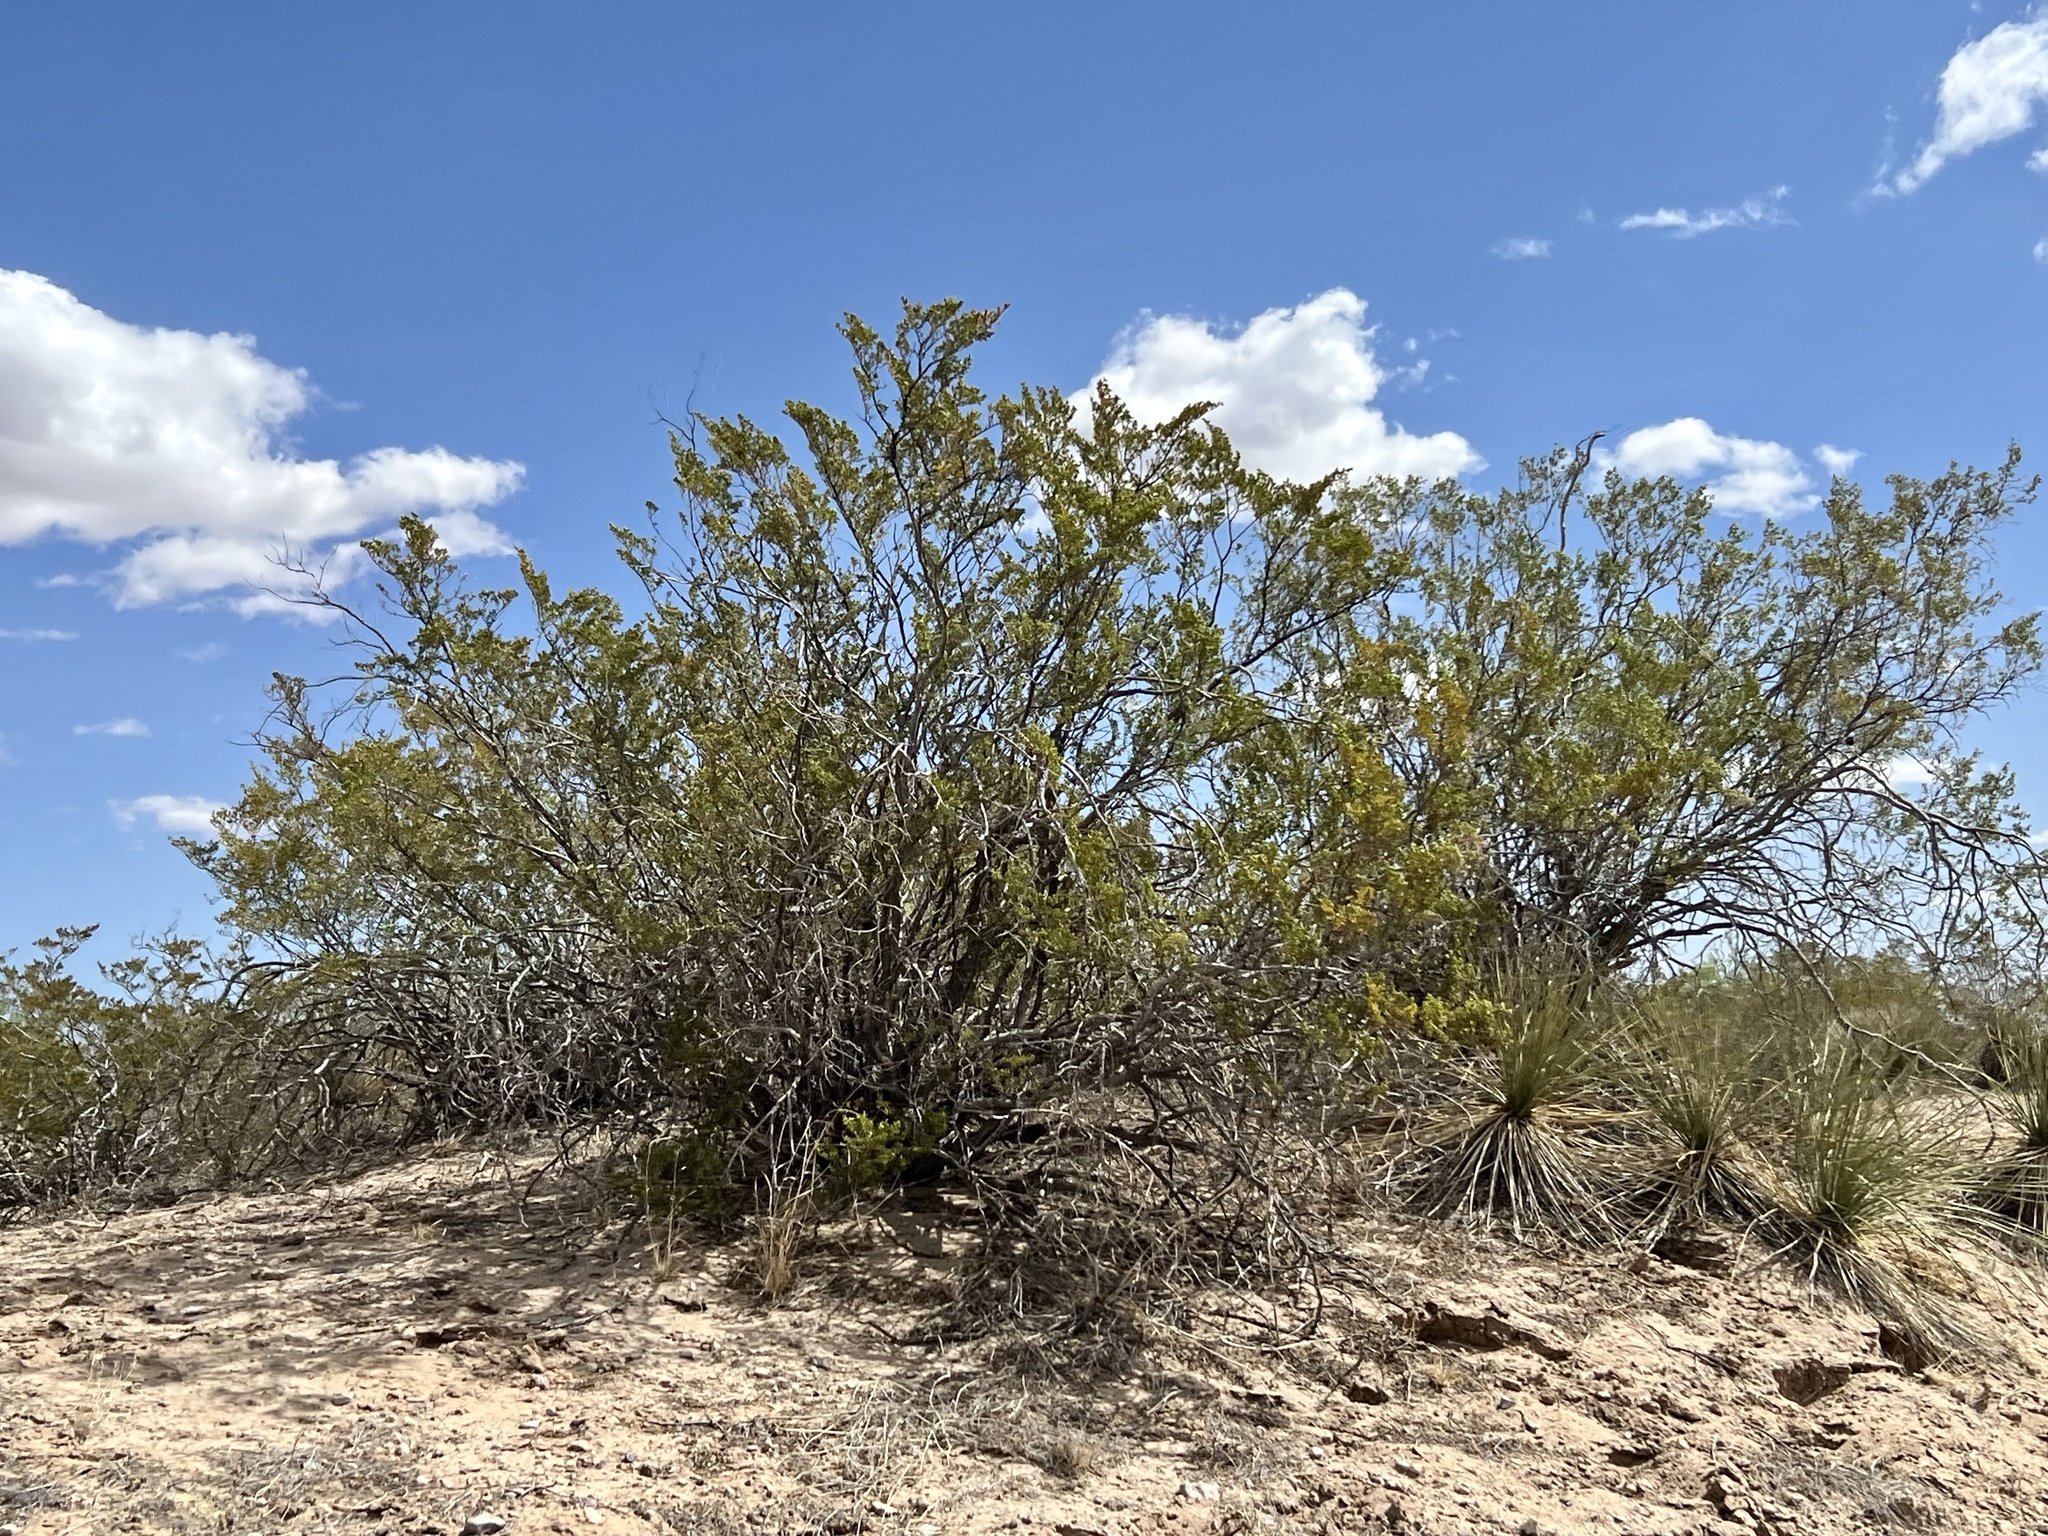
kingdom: Plantae
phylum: Tracheophyta
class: Magnoliopsida
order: Zygophyllales
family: Zygophyllaceae
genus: Larrea
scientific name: Larrea tridentata
